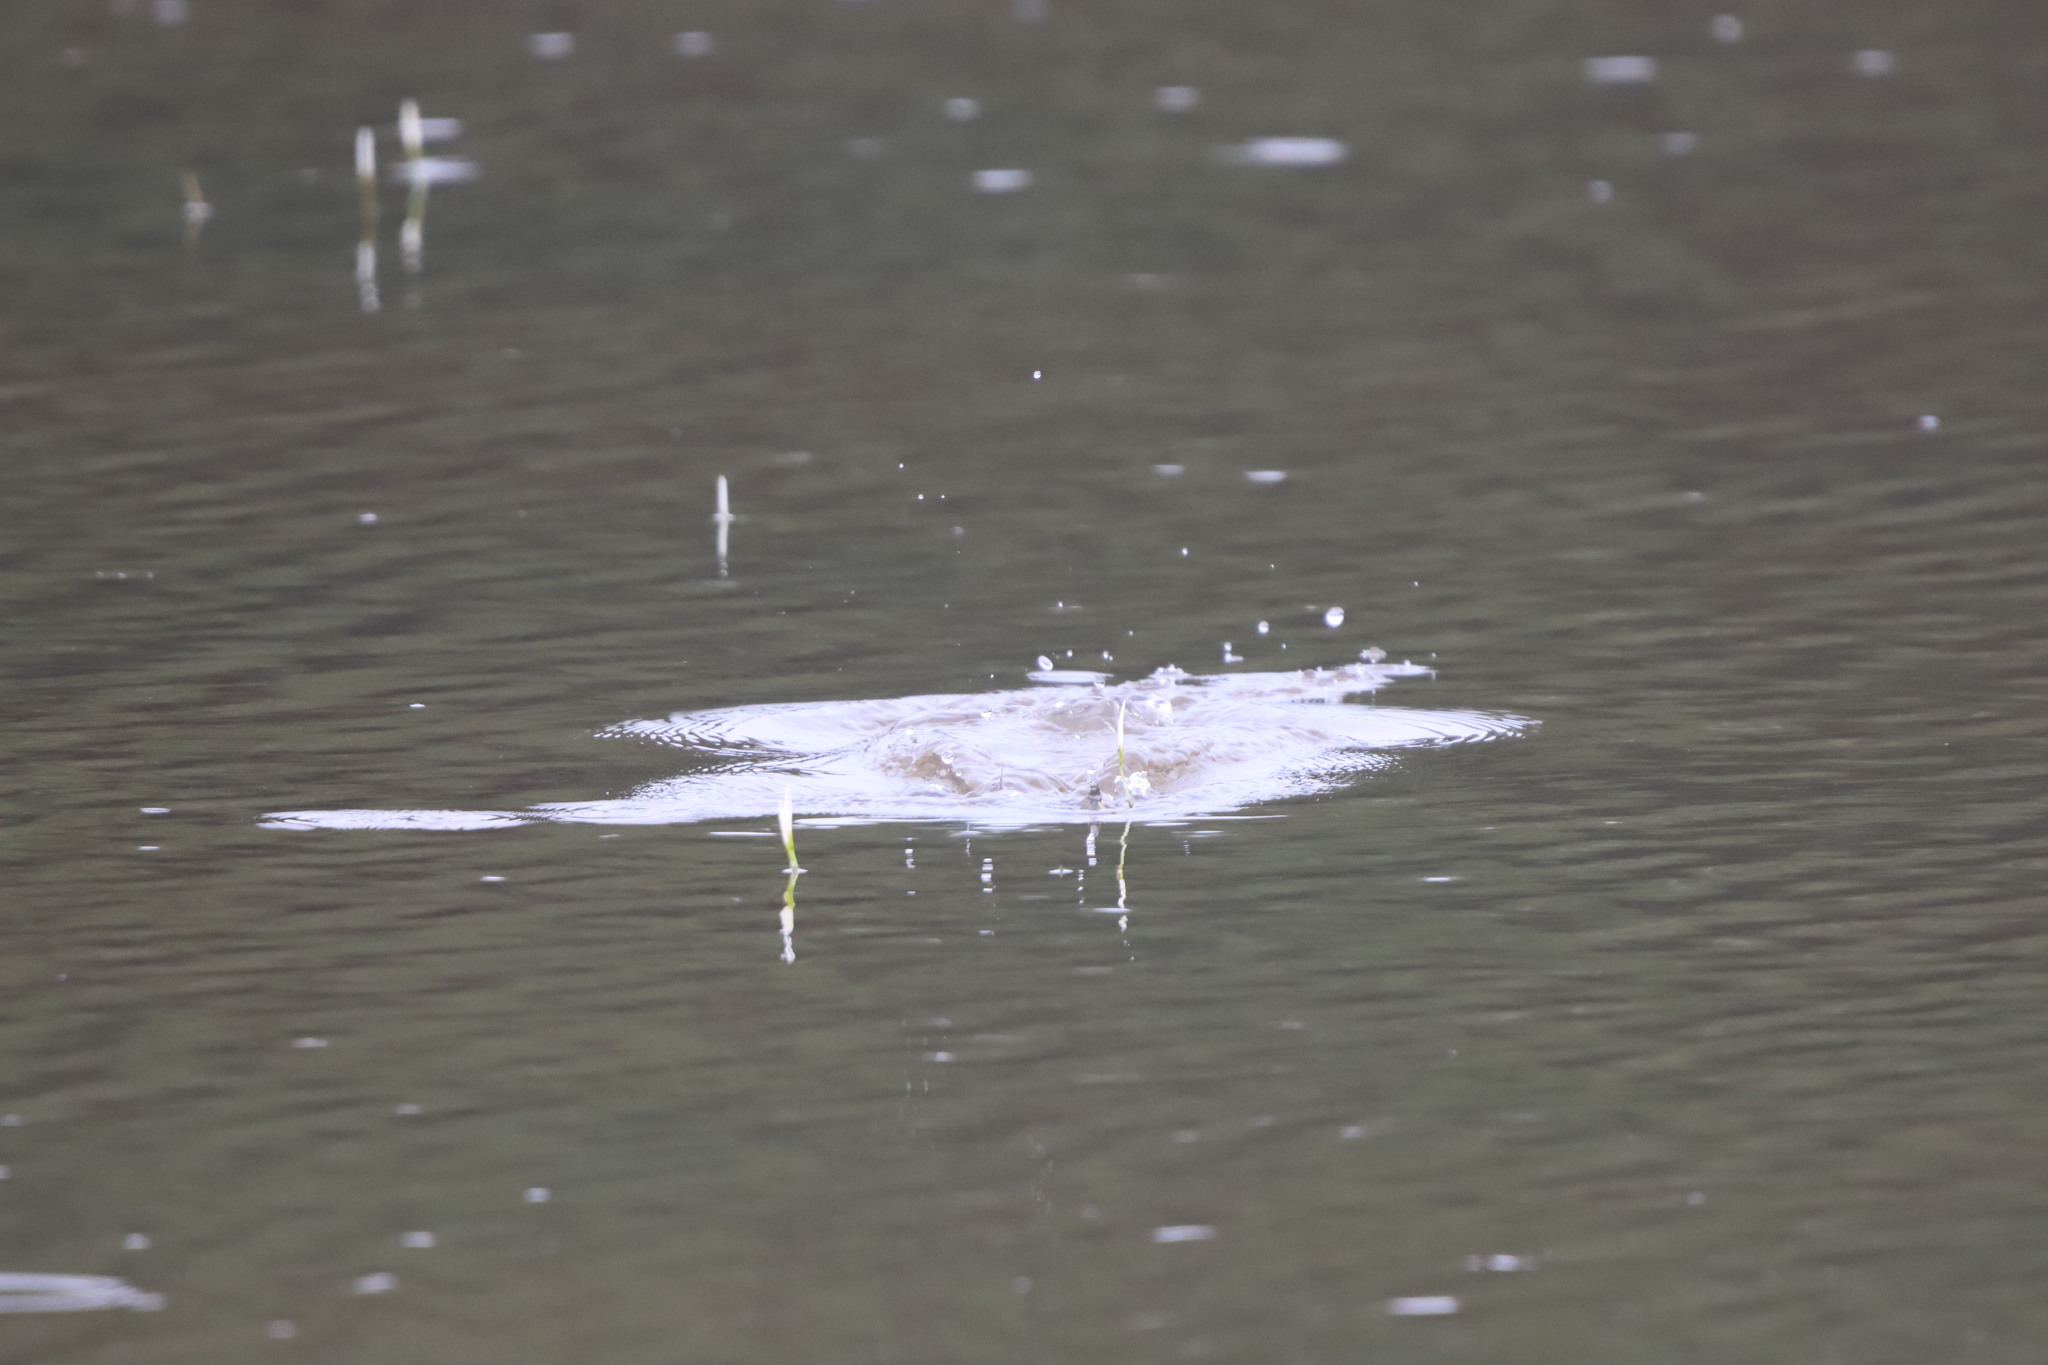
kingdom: Animalia
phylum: Chordata
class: Aves
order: Podicipediformes
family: Podicipedidae
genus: Tachybaptus
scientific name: Tachybaptus ruficollis
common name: Little grebe
